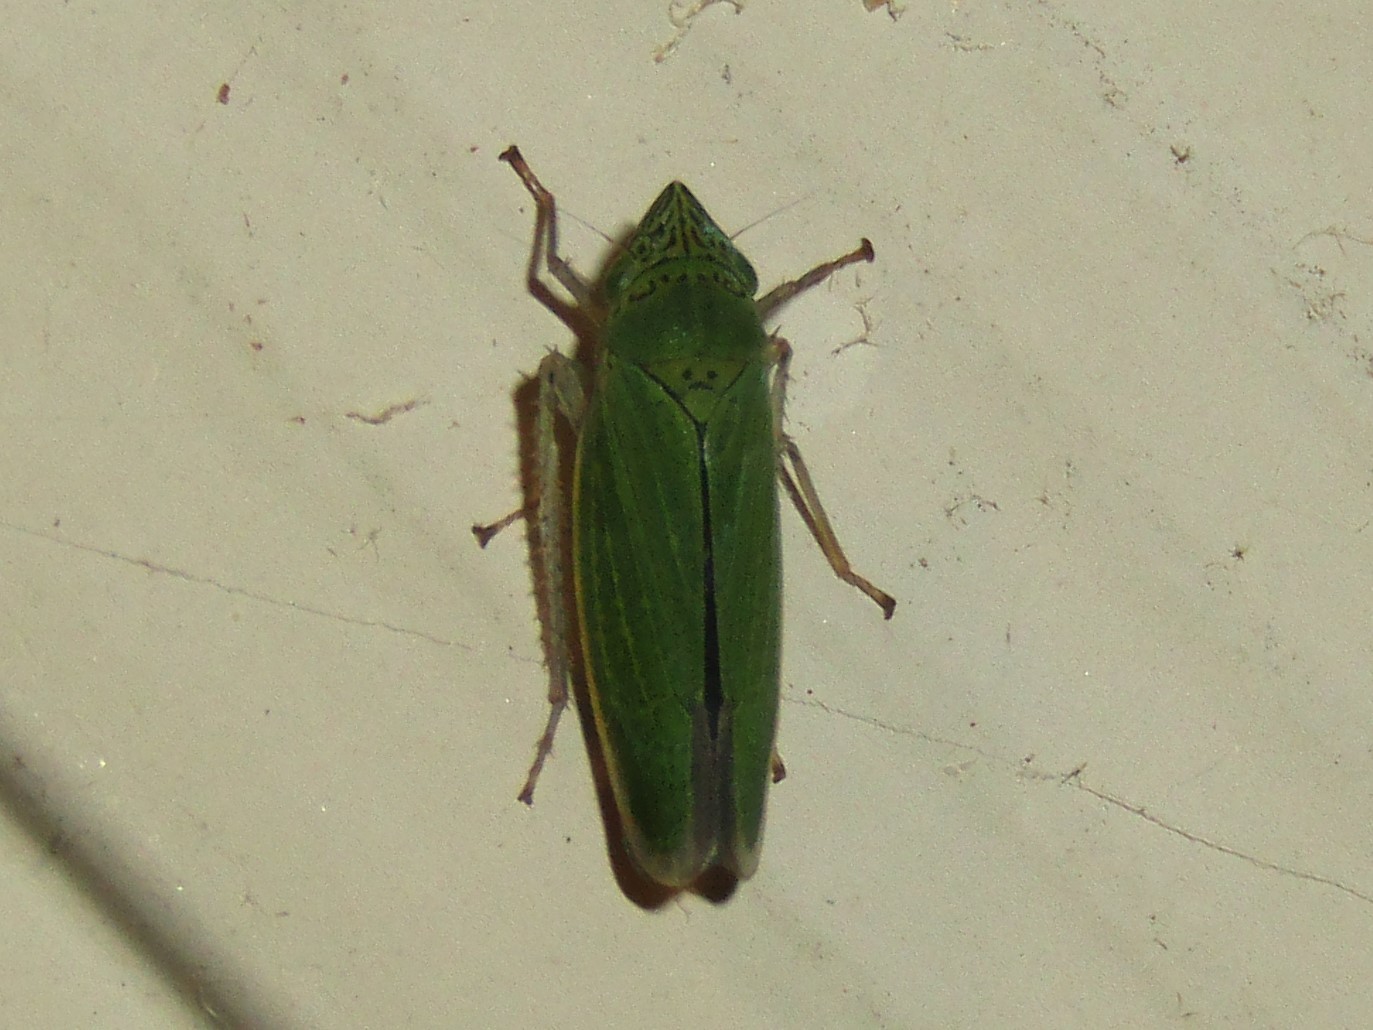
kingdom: Animalia
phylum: Arthropoda
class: Insecta
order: Hemiptera
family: Cicadellidae
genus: Draeculacephala
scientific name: Draeculacephala inscripta
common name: Leafhopper
